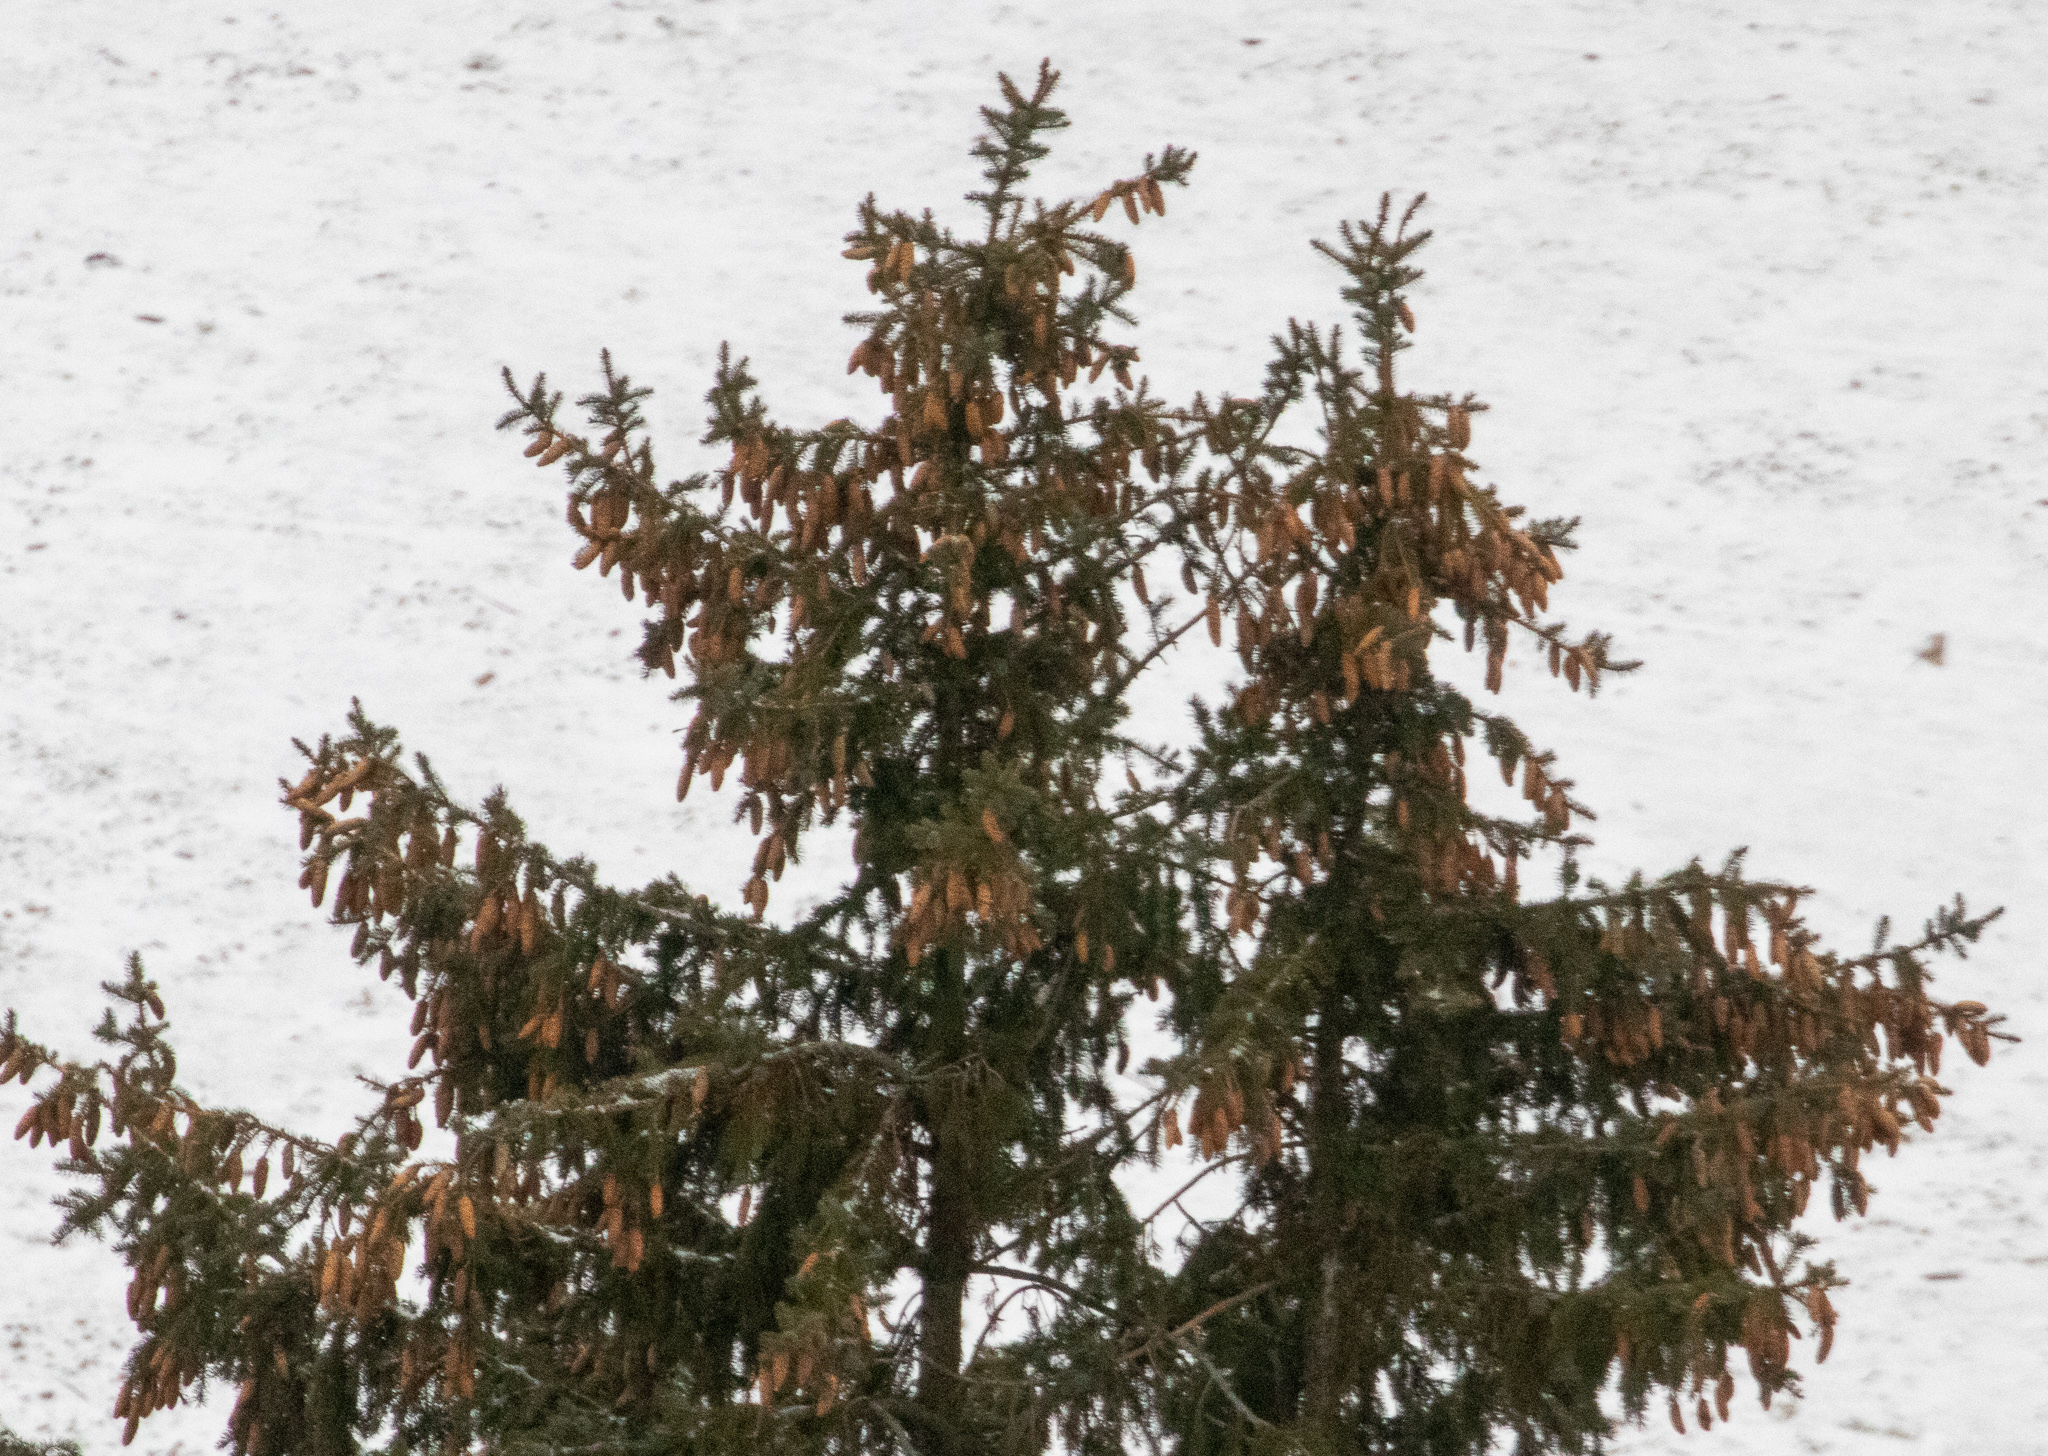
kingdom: Plantae
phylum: Tracheophyta
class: Pinopsida
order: Pinales
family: Pinaceae
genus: Picea
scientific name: Picea abies
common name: Norway spruce
